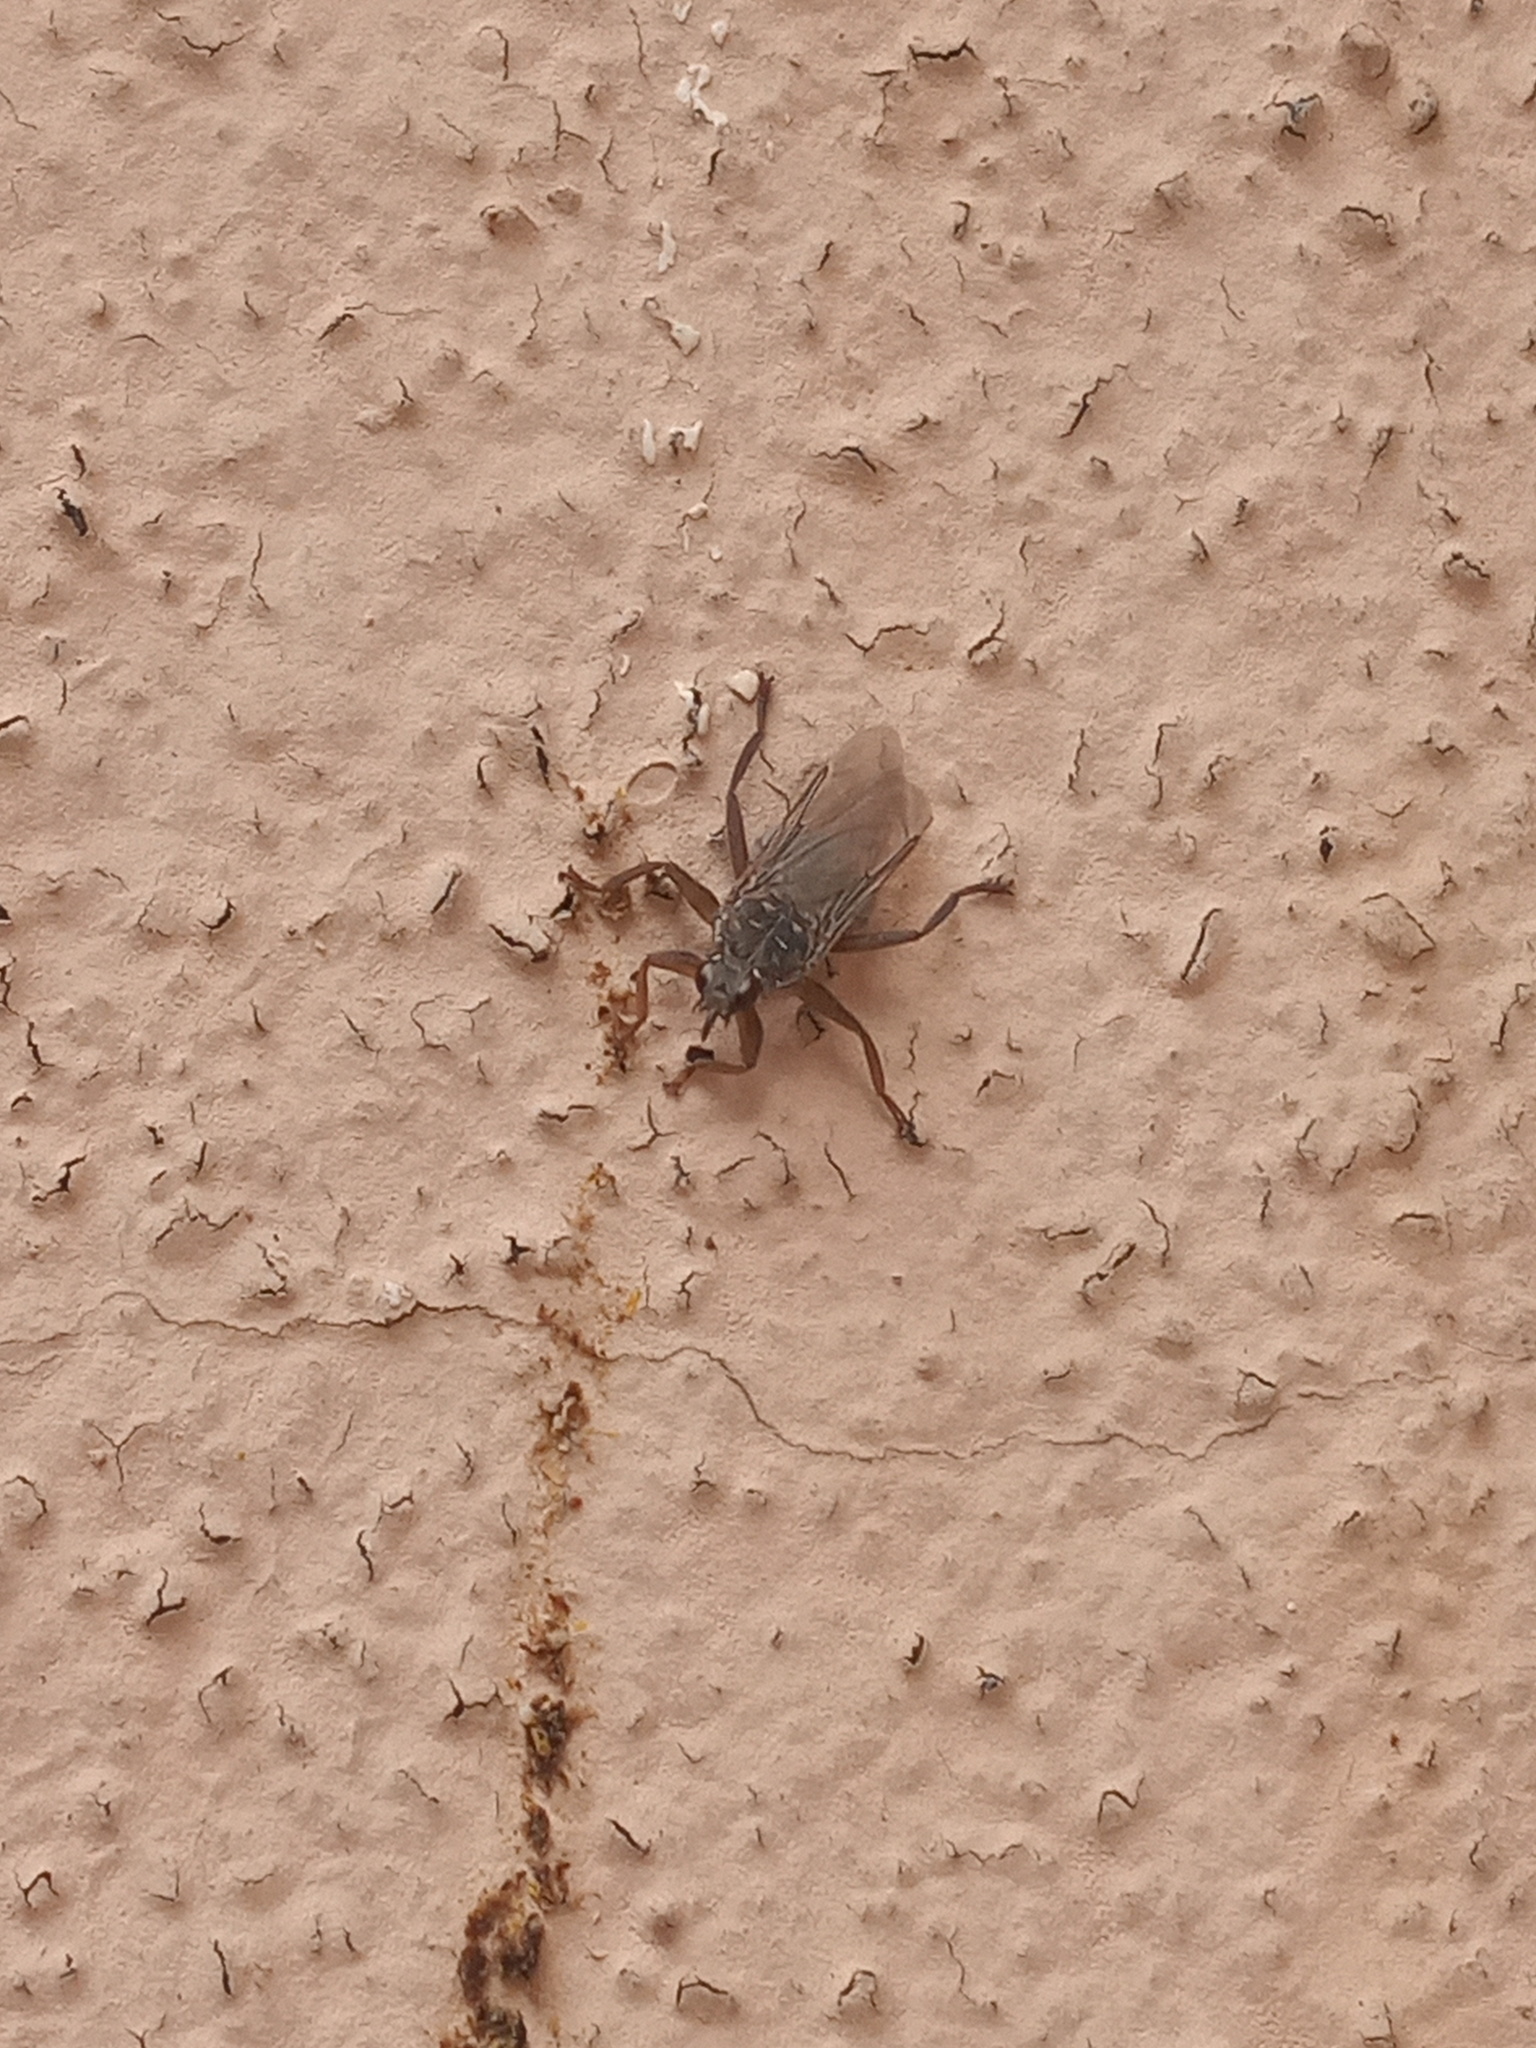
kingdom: Animalia
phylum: Arthropoda
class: Insecta
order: Diptera
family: Hippoboscidae
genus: Pseudolynchia
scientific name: Pseudolynchia canariensis
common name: Louse fly
